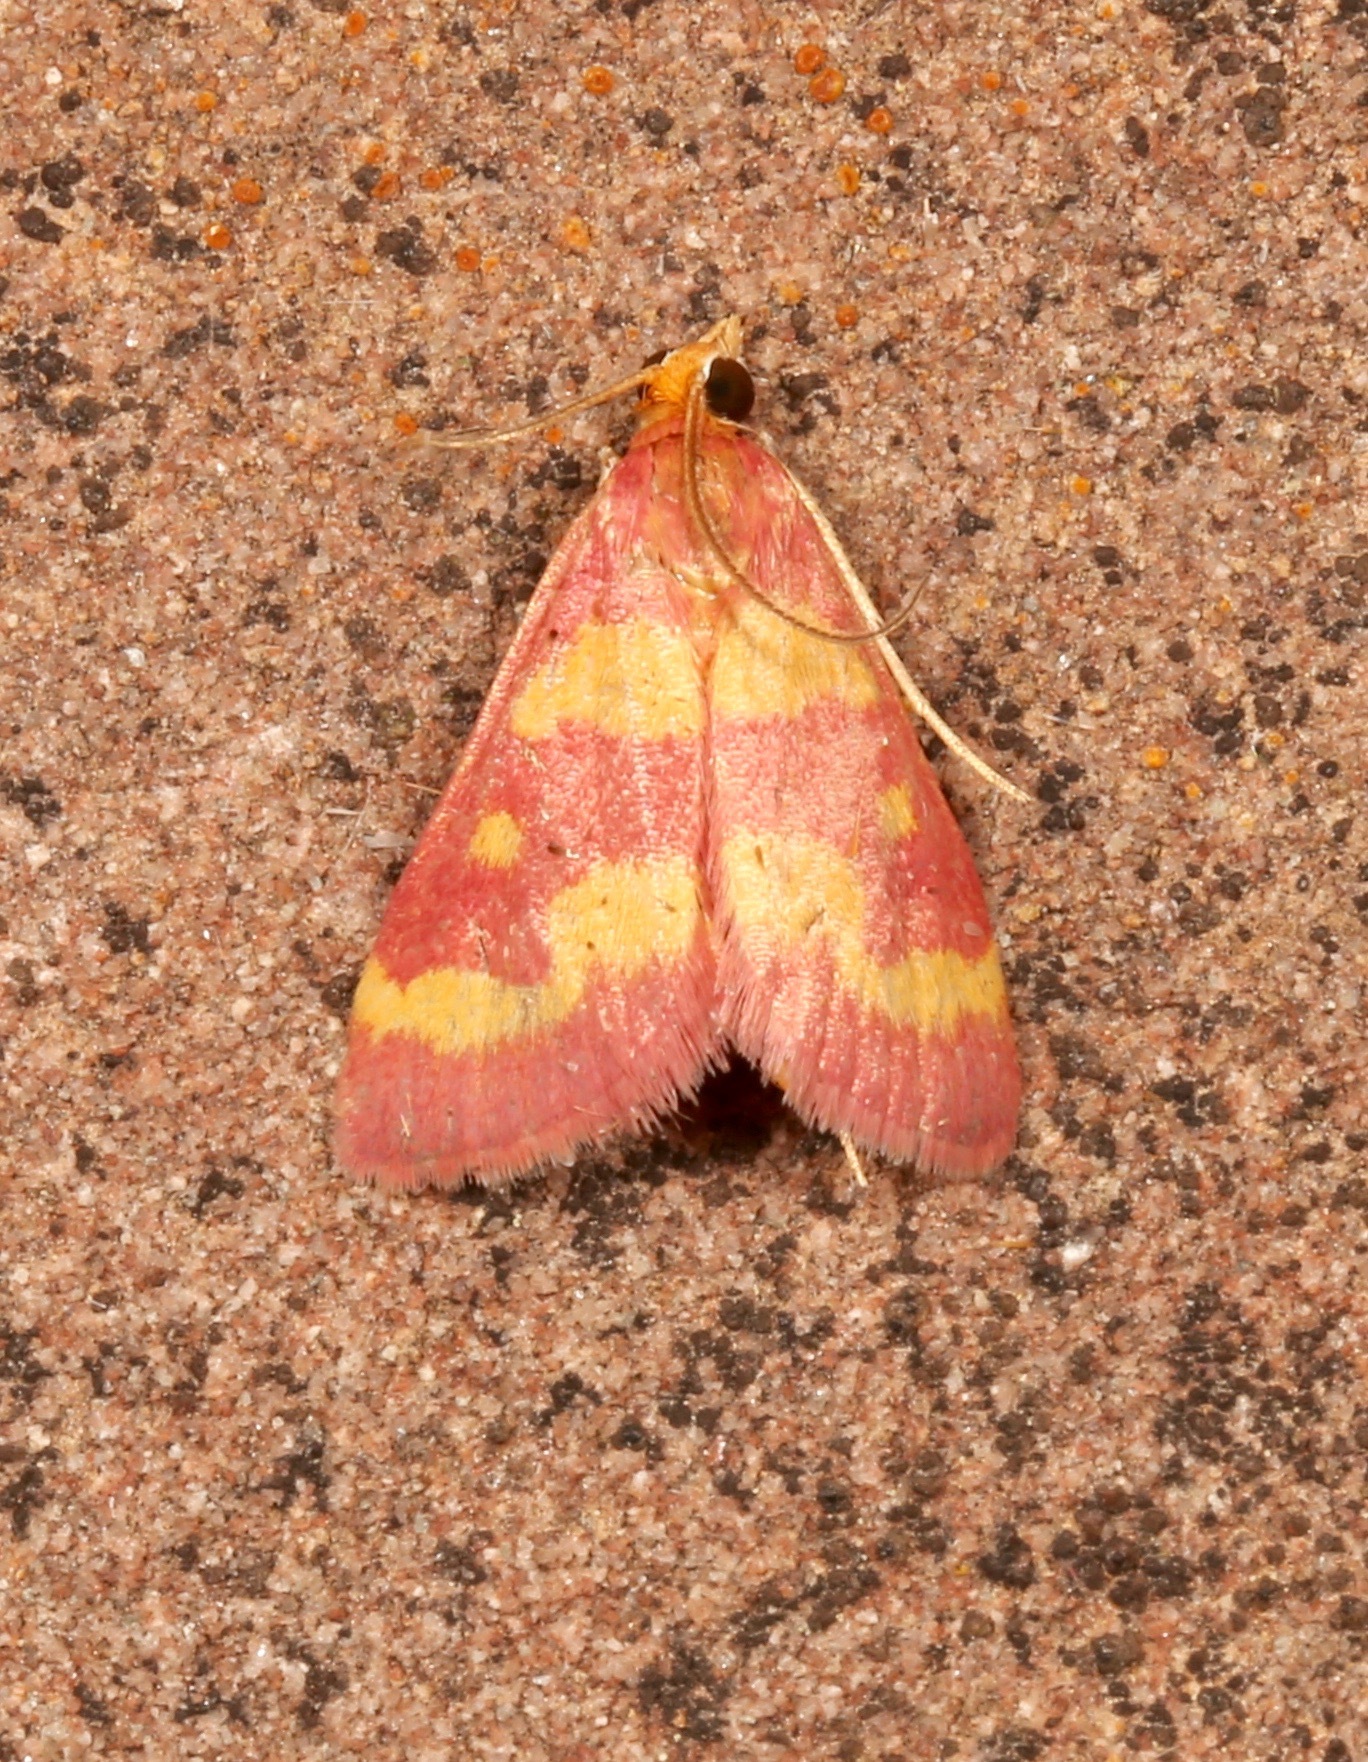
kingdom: Animalia
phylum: Arthropoda
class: Insecta
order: Lepidoptera
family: Crambidae
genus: Pyrausta
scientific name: Pyrausta tyralis
